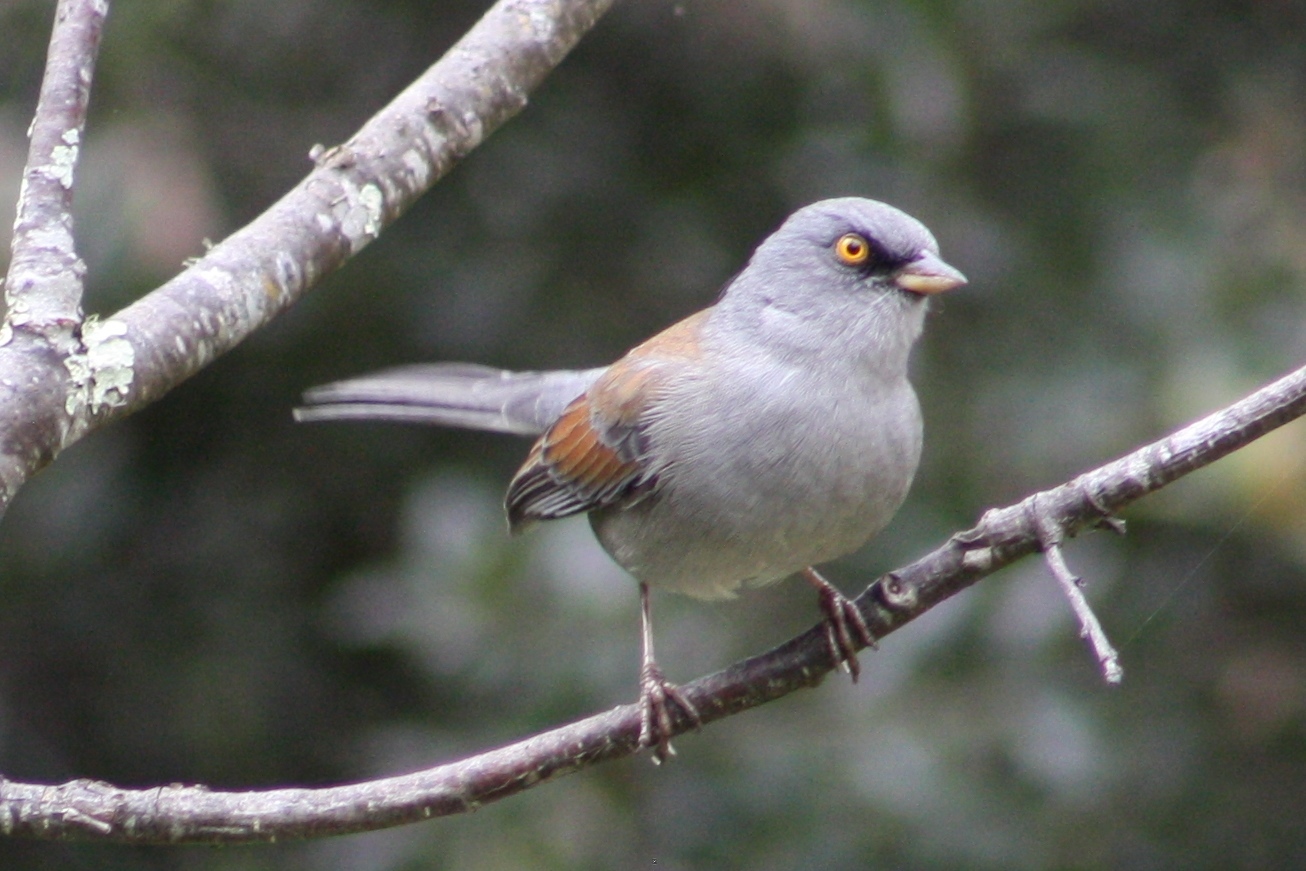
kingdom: Animalia
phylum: Chordata
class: Aves
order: Passeriformes
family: Passerellidae
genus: Junco
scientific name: Junco phaeonotus
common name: Yellow-eyed junco
